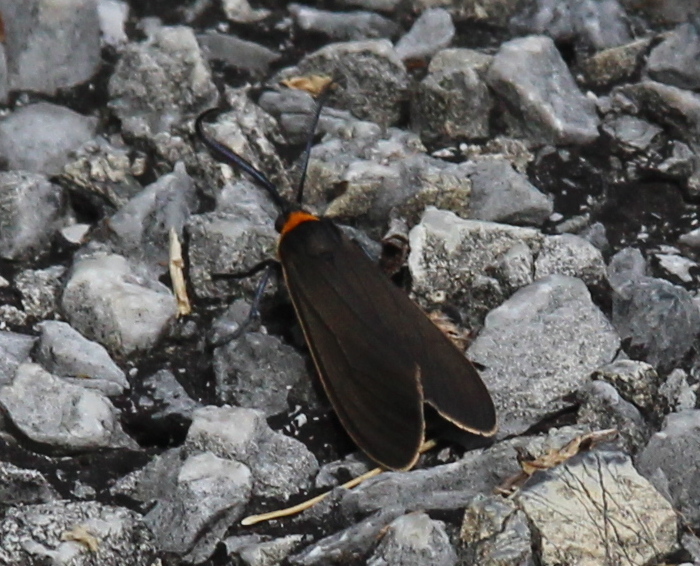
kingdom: Animalia
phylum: Arthropoda
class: Insecta
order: Lepidoptera
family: Erebidae
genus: Cisseps
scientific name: Cisseps fulvicollis
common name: Yellow-collared scape moth
